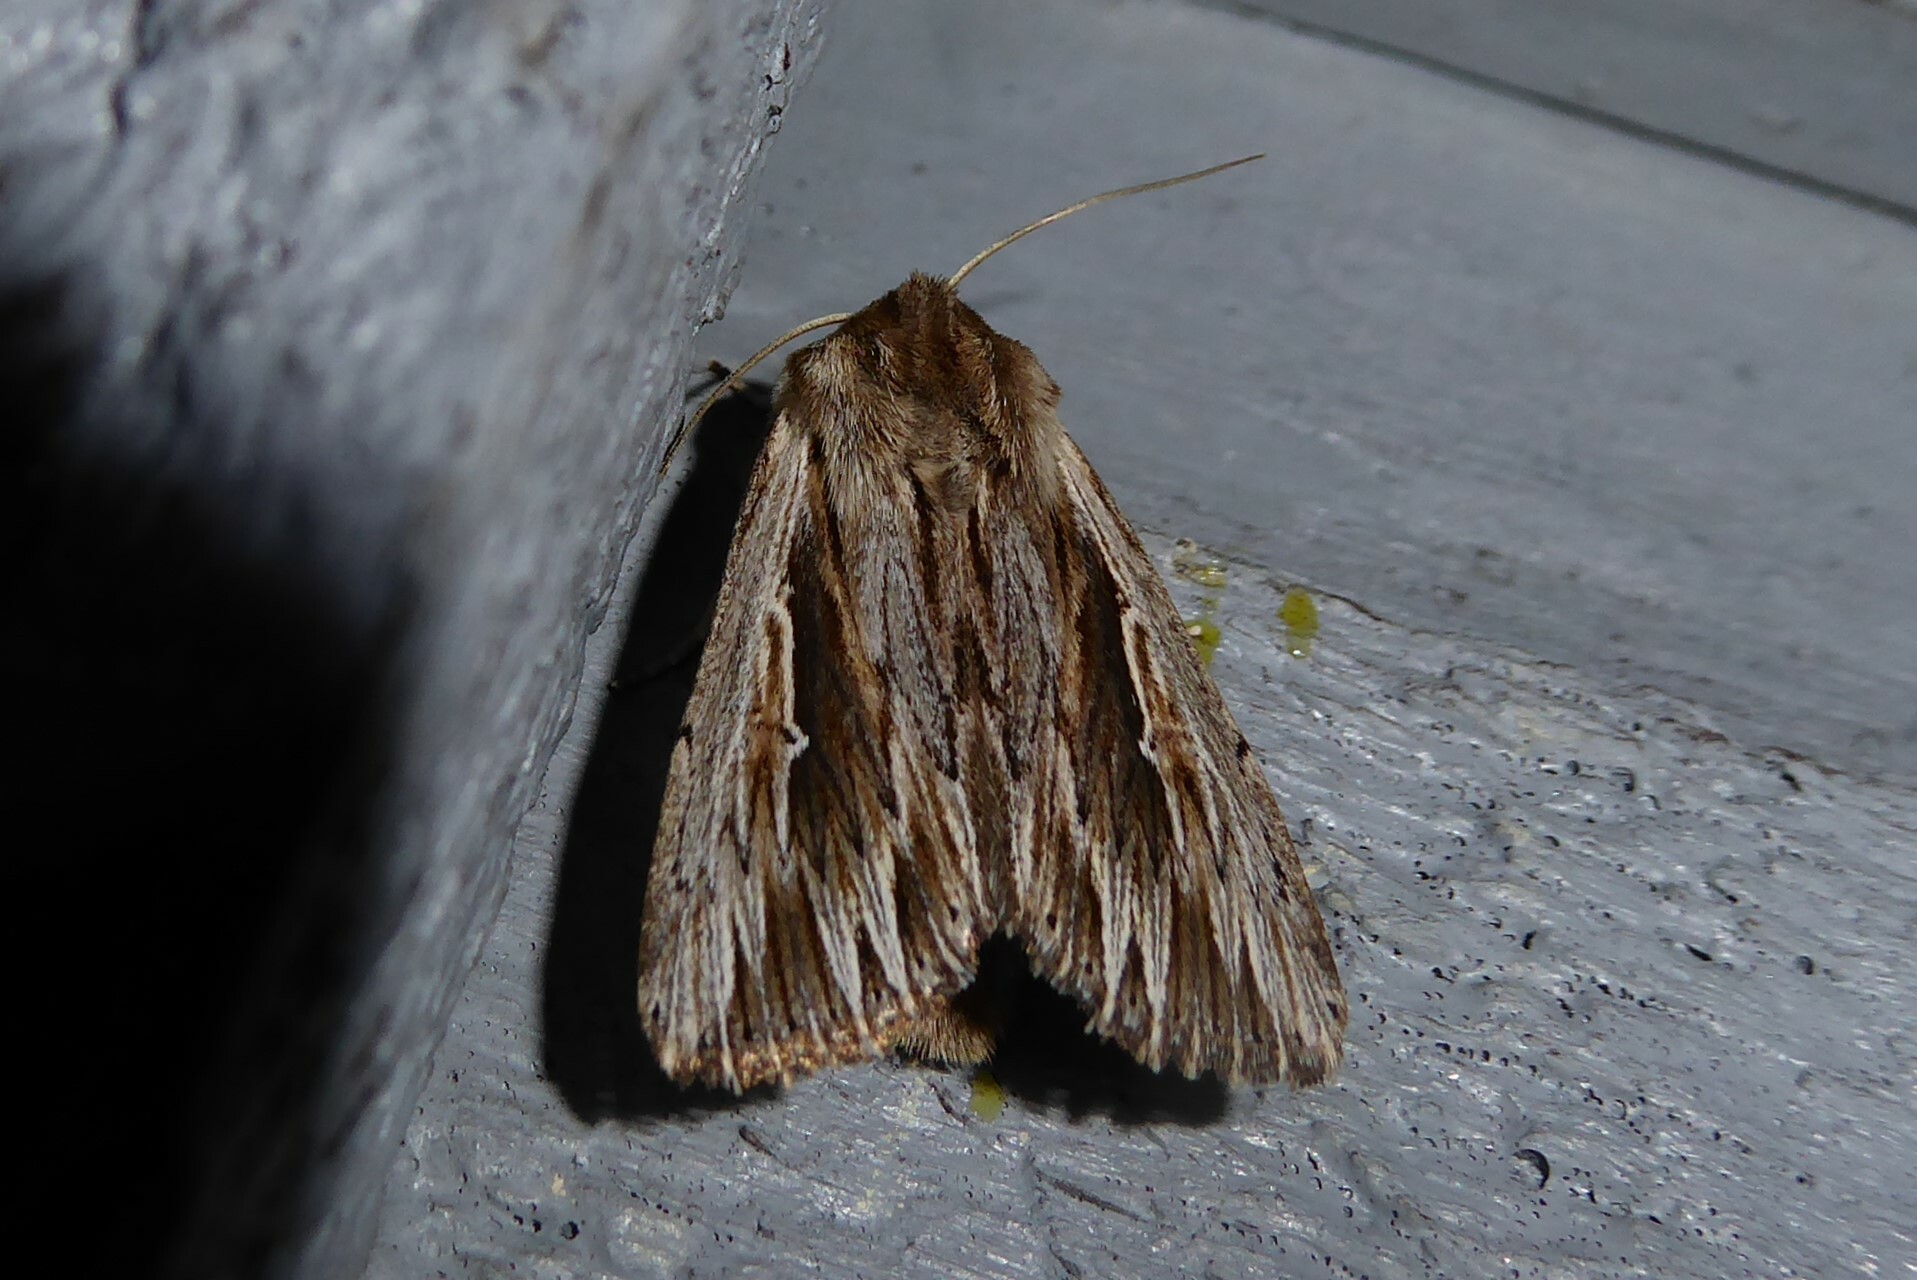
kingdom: Animalia
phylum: Arthropoda
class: Insecta
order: Lepidoptera
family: Noctuidae
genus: Persectania
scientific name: Persectania aversa
